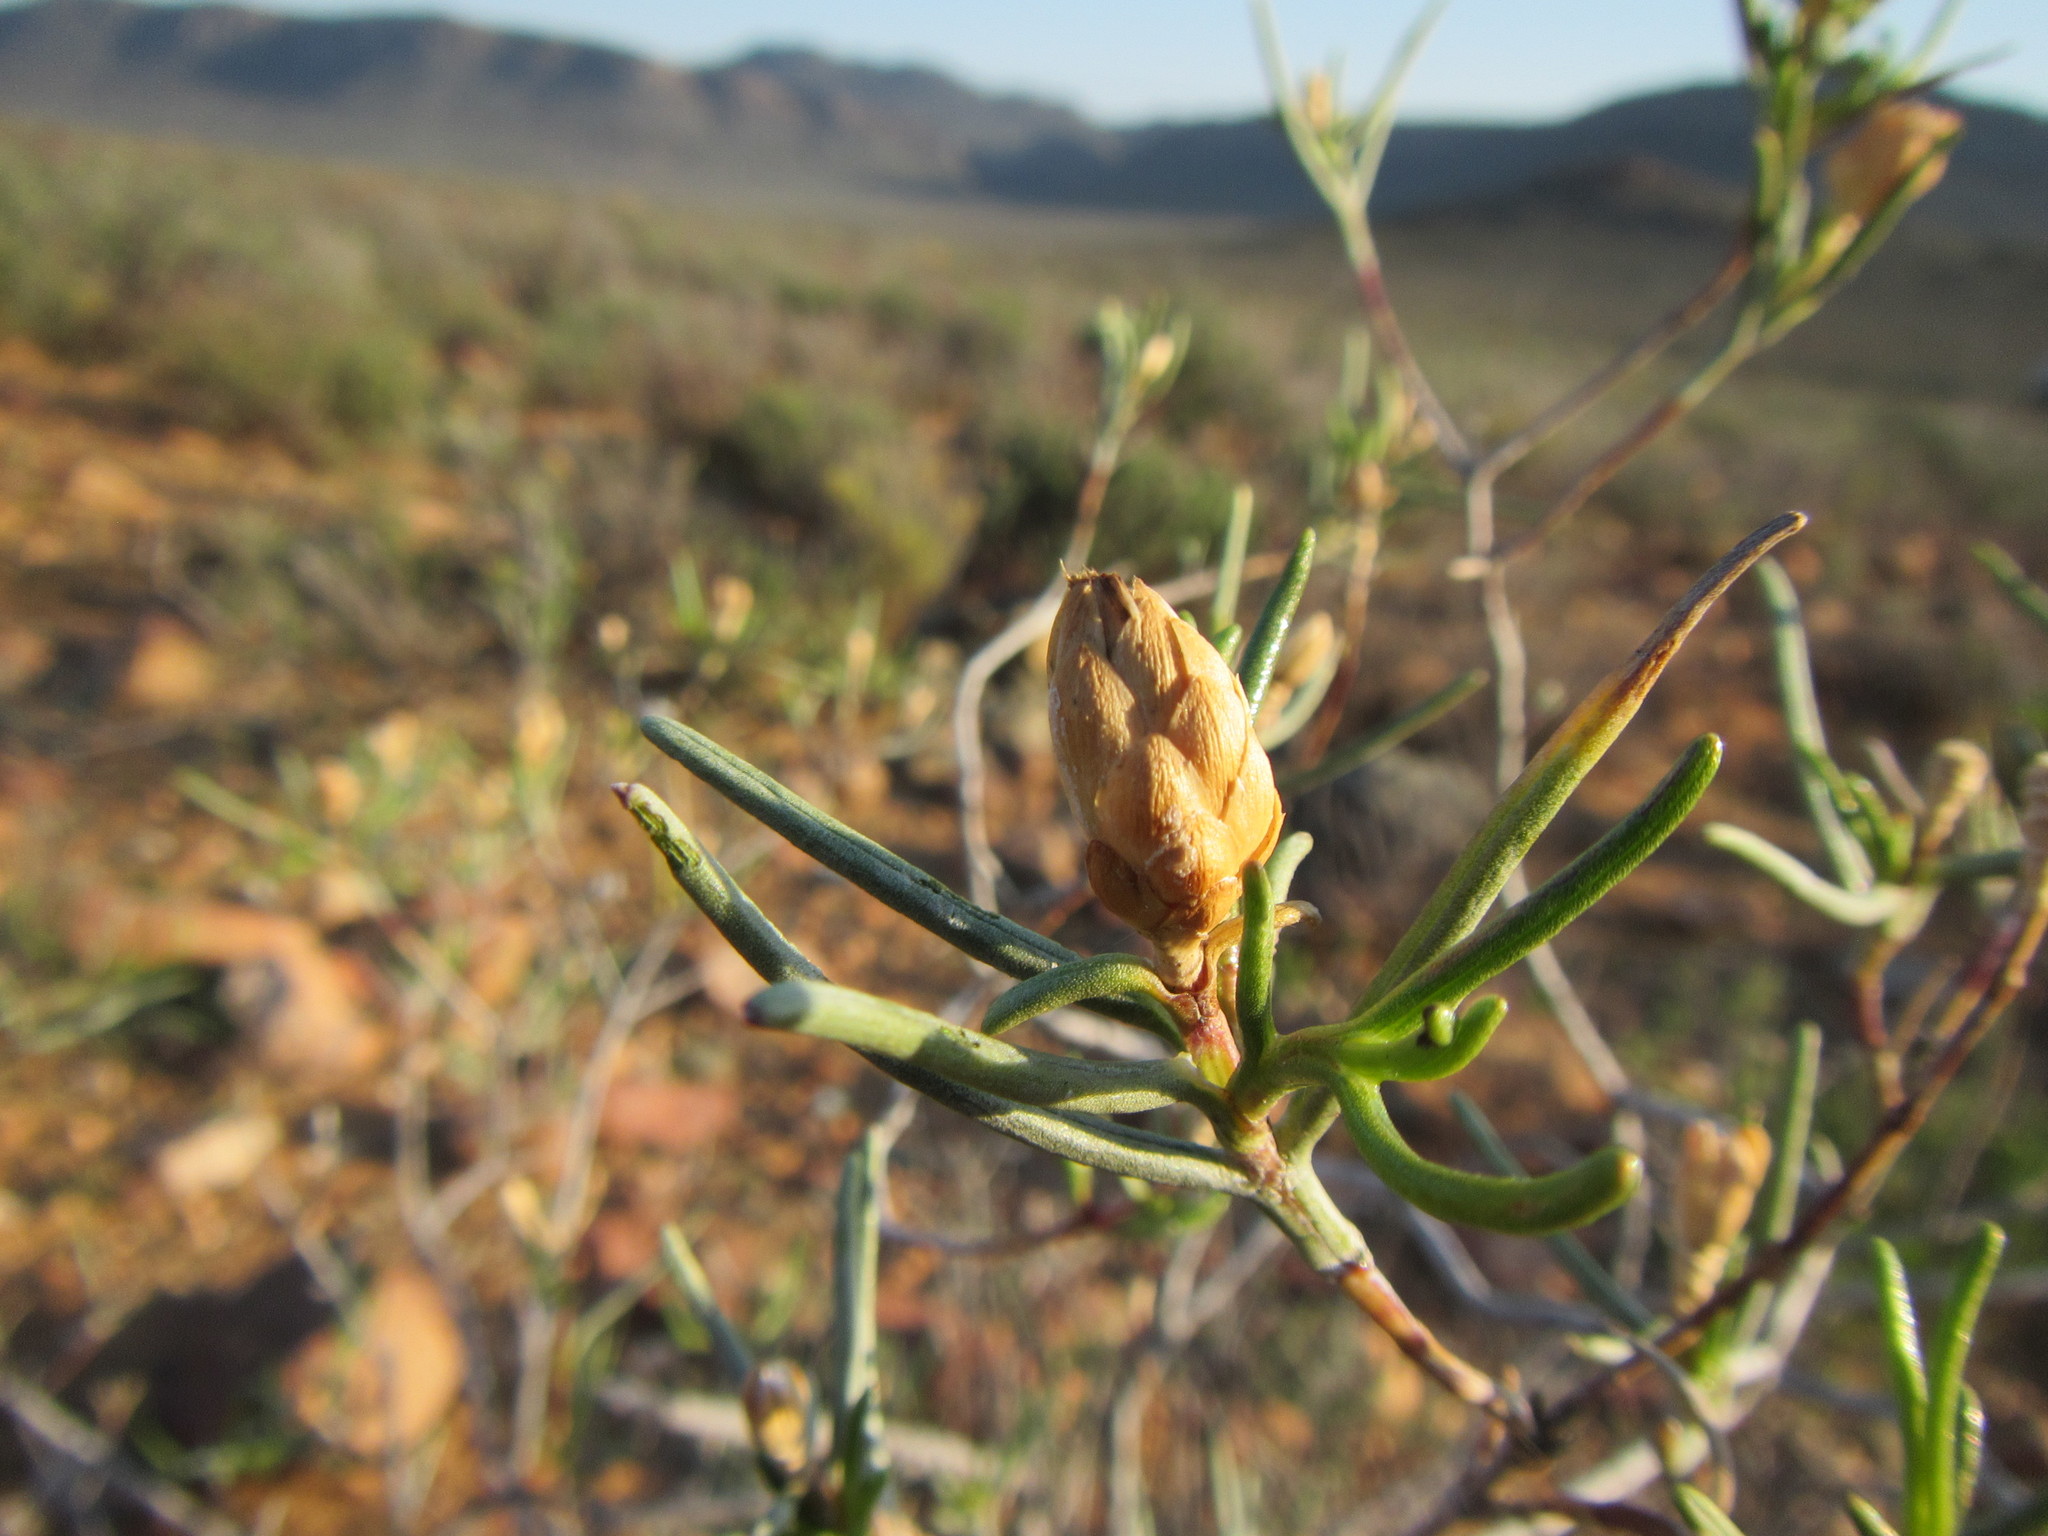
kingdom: Plantae
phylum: Tracheophyta
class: Magnoliopsida
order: Asterales
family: Asteraceae
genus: Pteronia
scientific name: Pteronia flexicaulis
